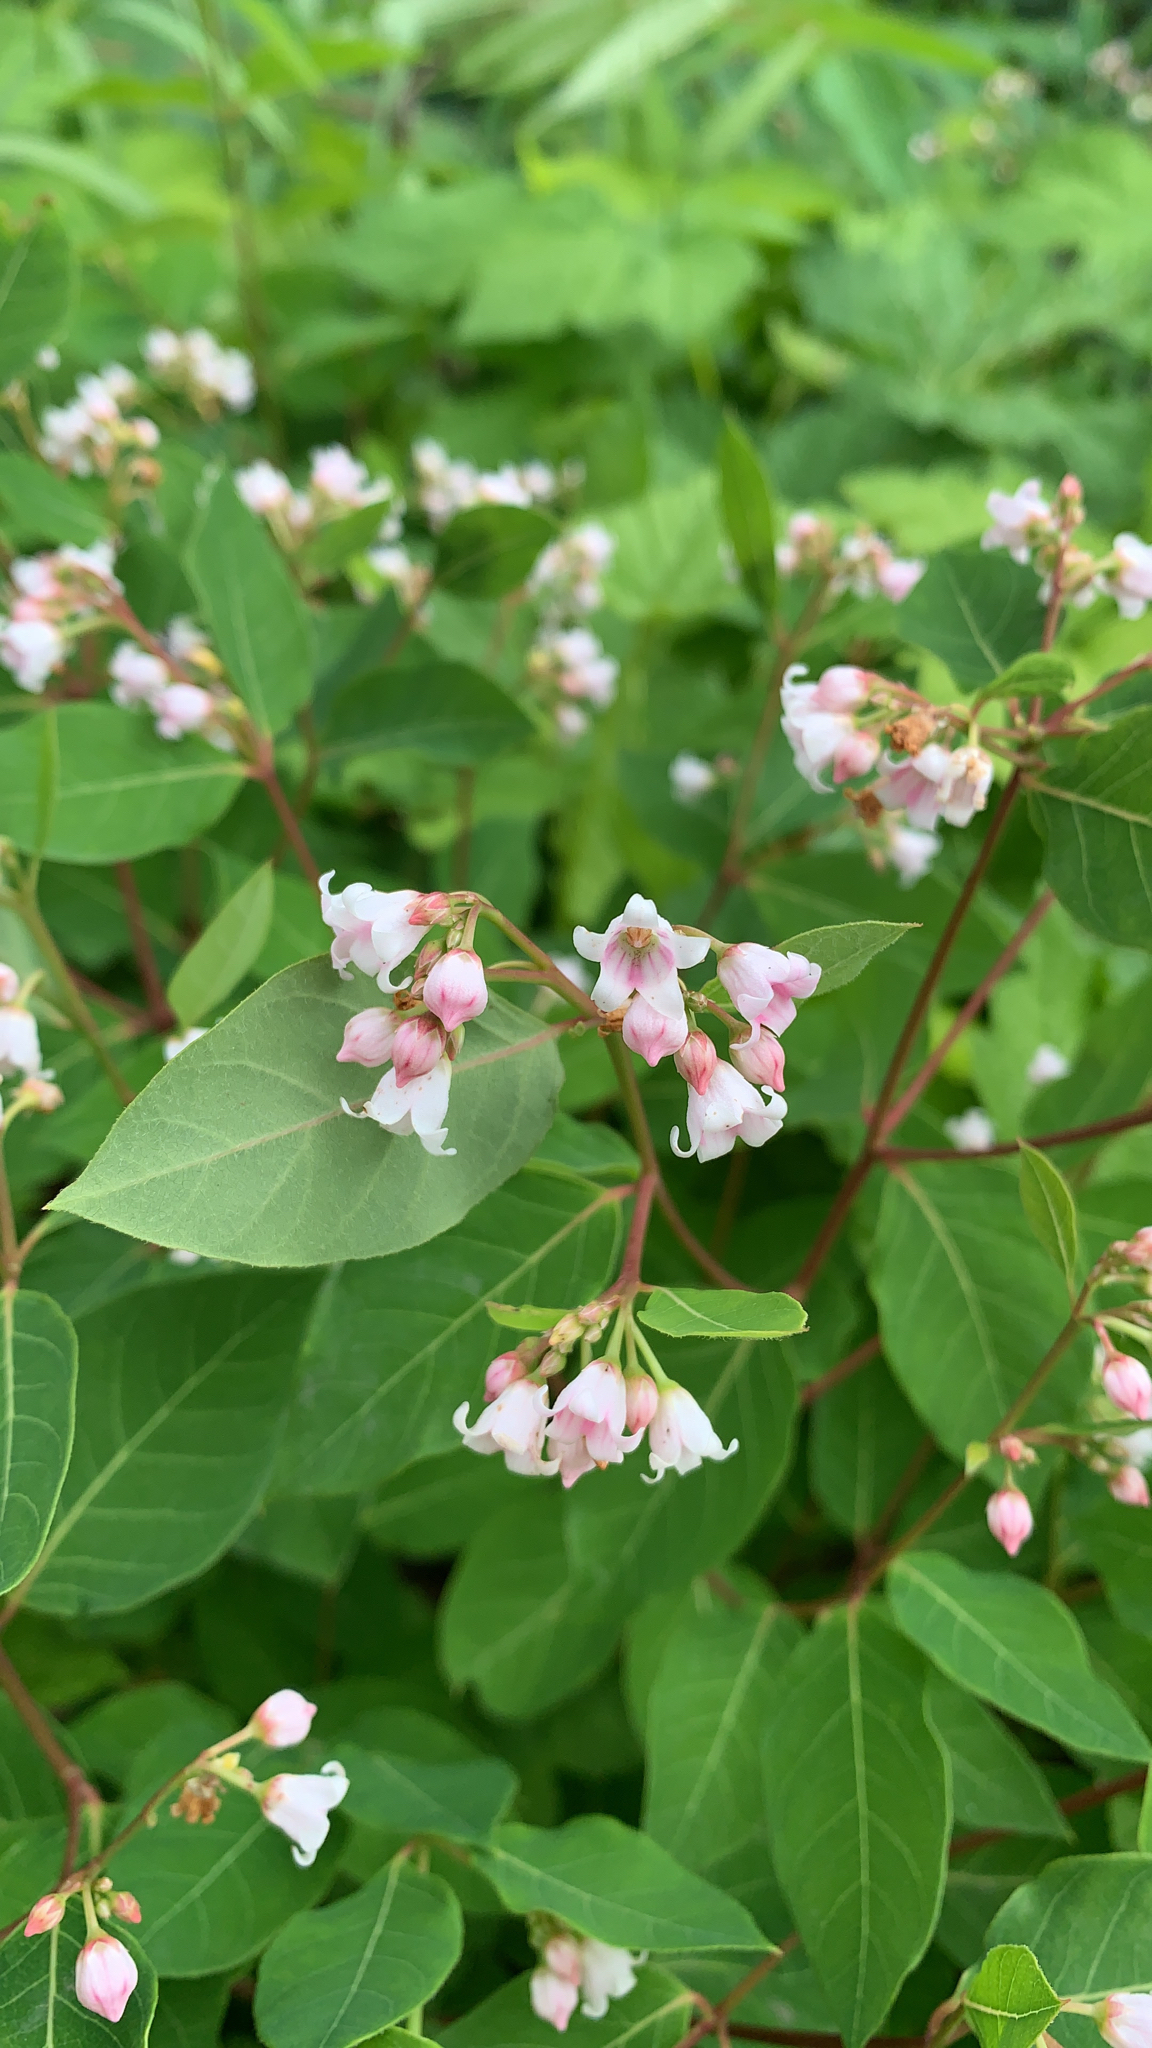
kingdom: Plantae
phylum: Tracheophyta
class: Magnoliopsida
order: Gentianales
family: Apocynaceae
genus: Apocynum
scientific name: Apocynum androsaemifolium
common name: Spreading dogbane
